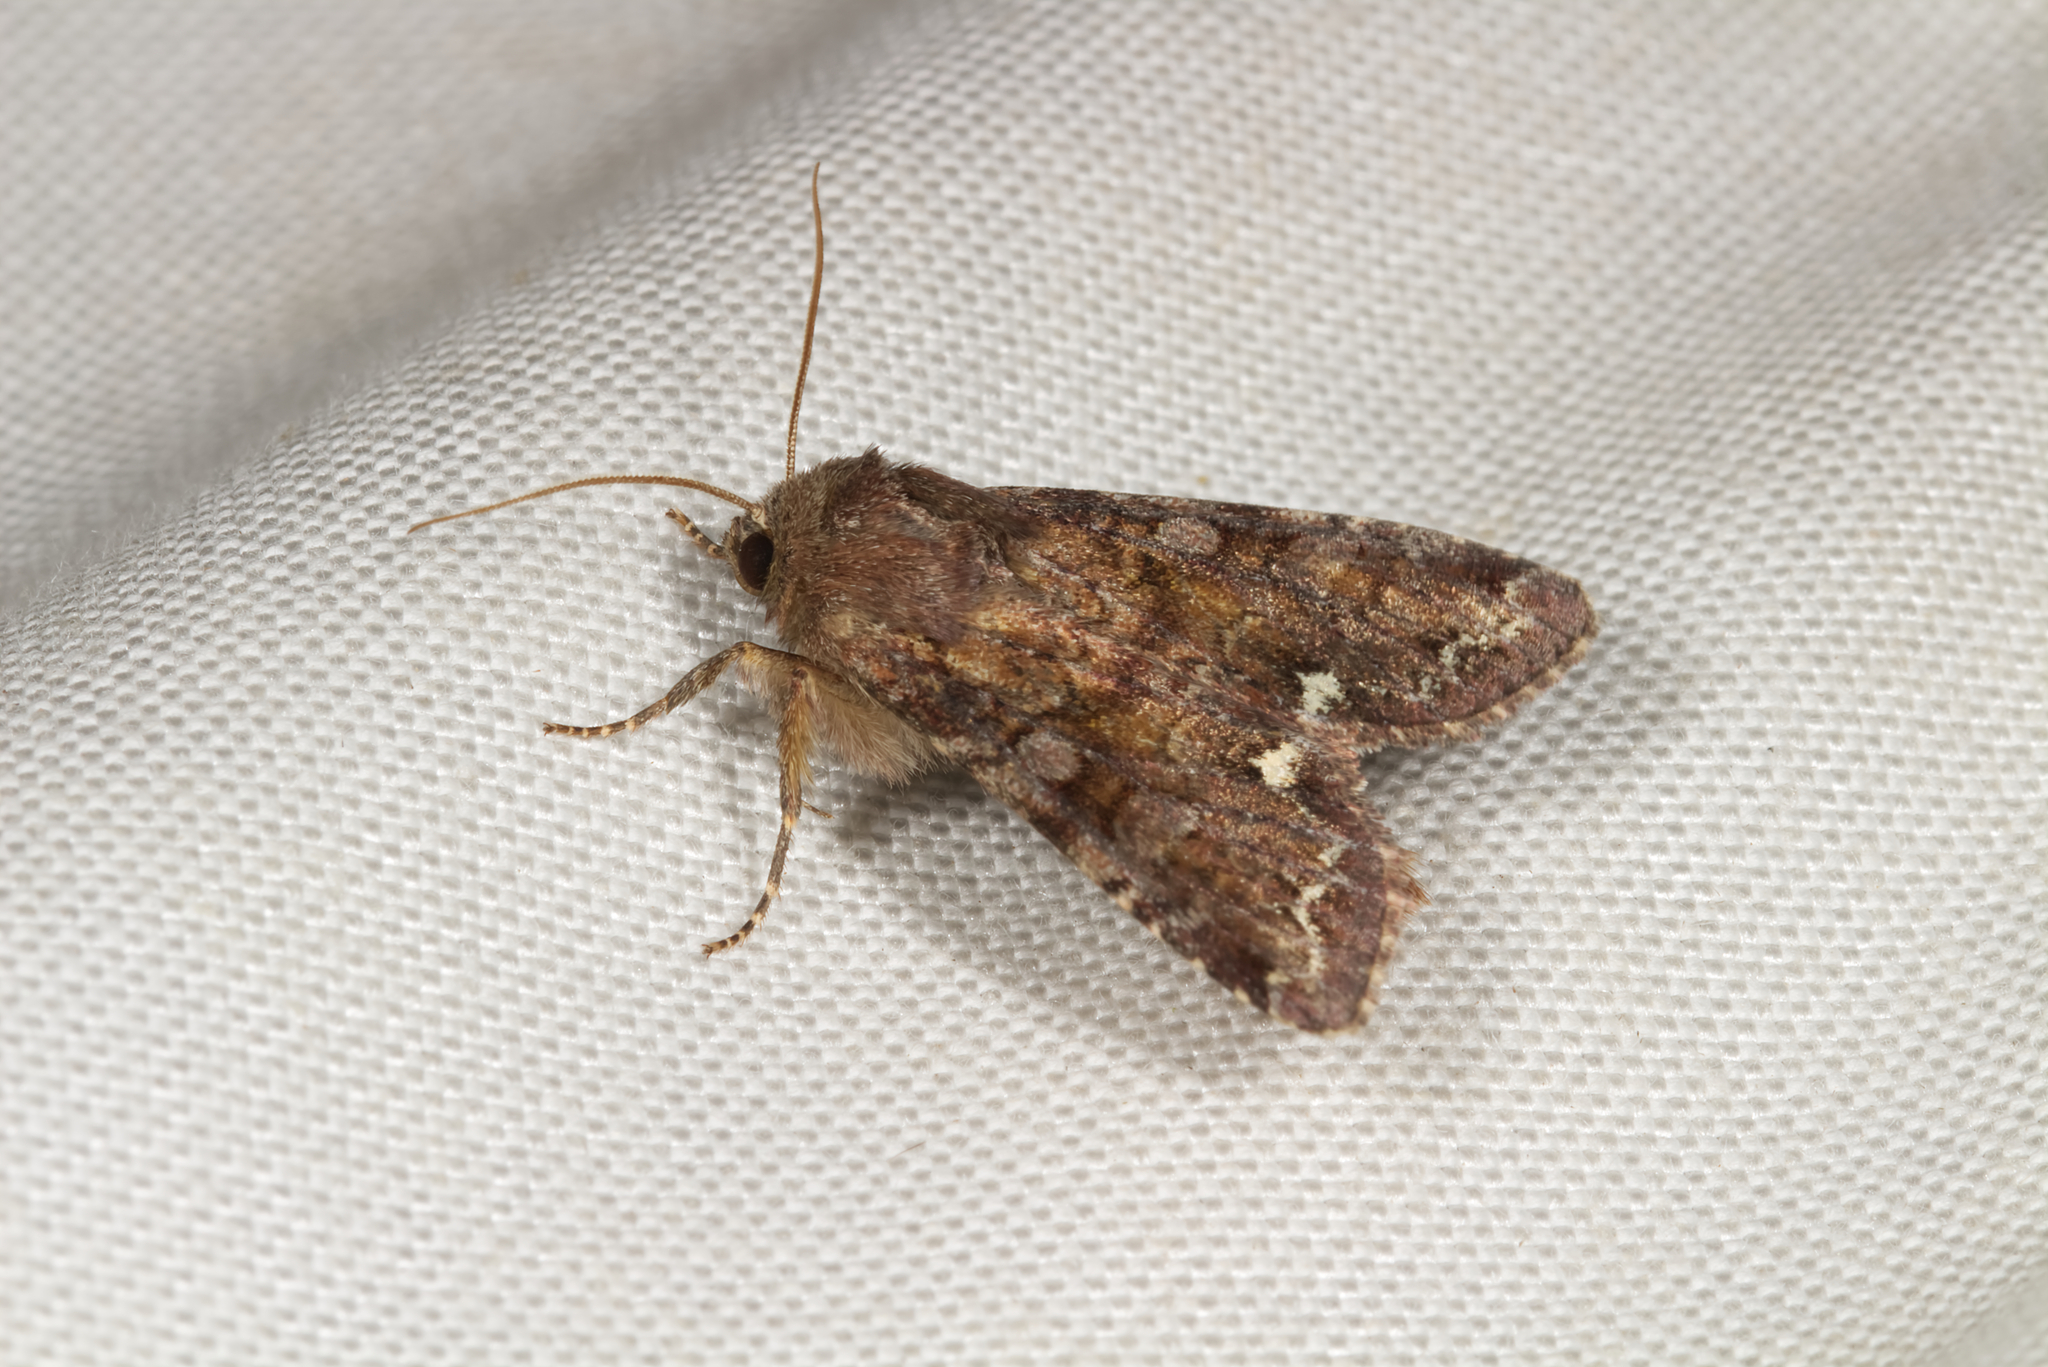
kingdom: Animalia
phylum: Arthropoda
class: Insecta
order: Lepidoptera
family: Noctuidae
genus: Ceramica
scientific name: Ceramica pisi
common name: Broom moth
